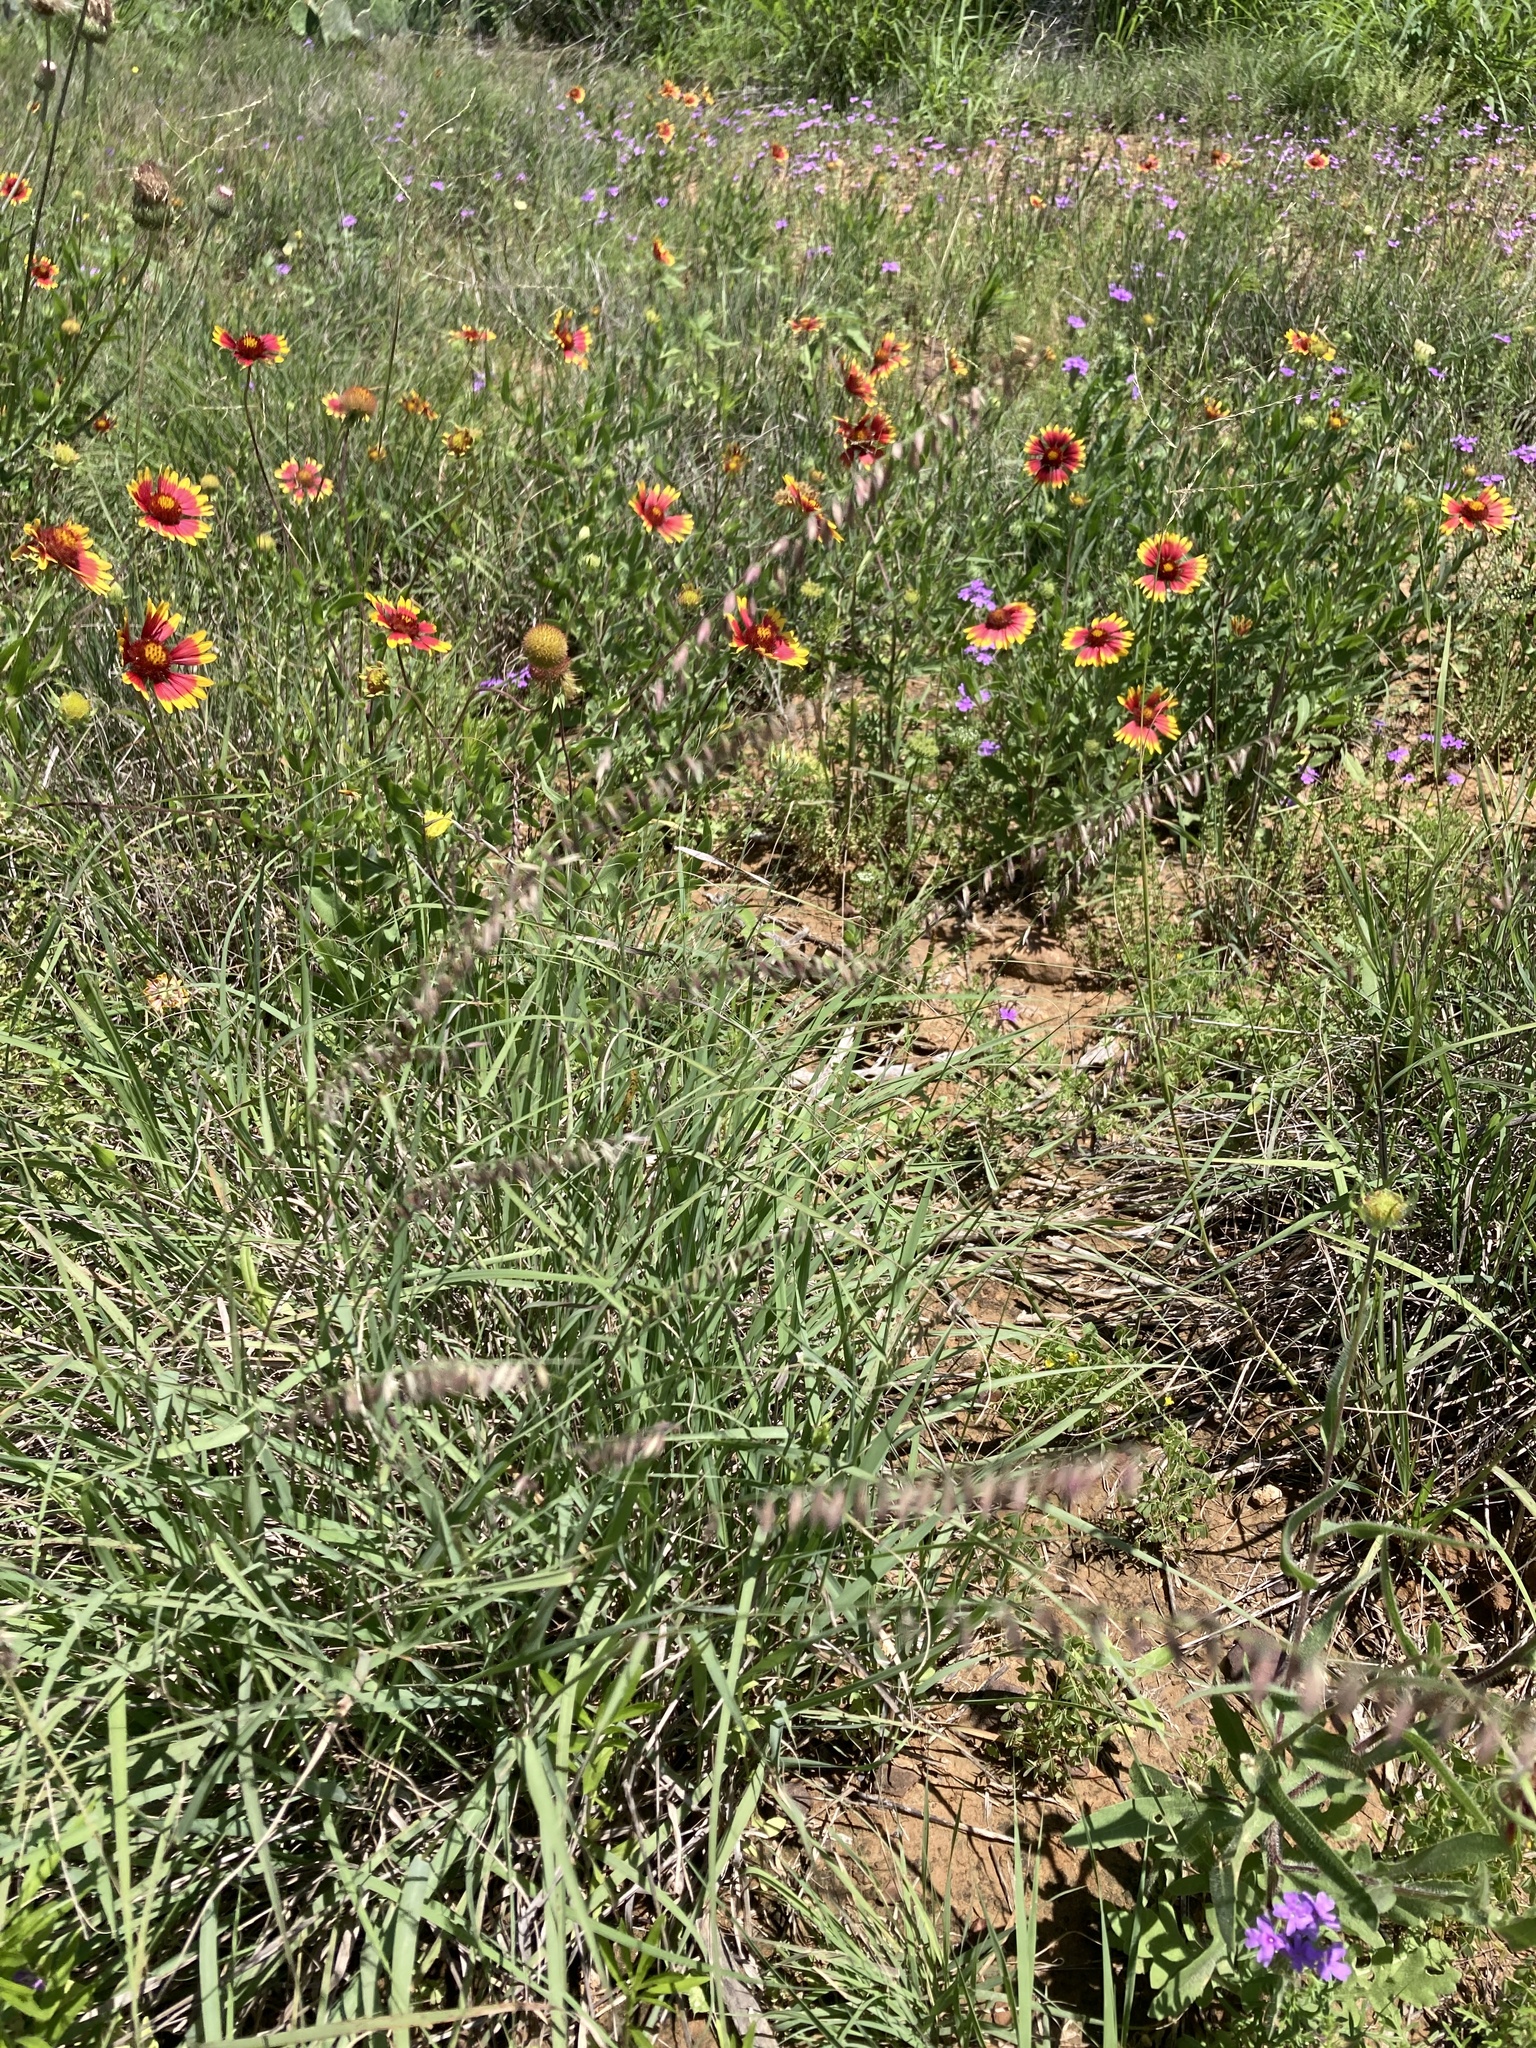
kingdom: Plantae
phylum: Tracheophyta
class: Liliopsida
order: Poales
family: Poaceae
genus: Bouteloua
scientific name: Bouteloua curtipendula
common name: Side-oats grama
